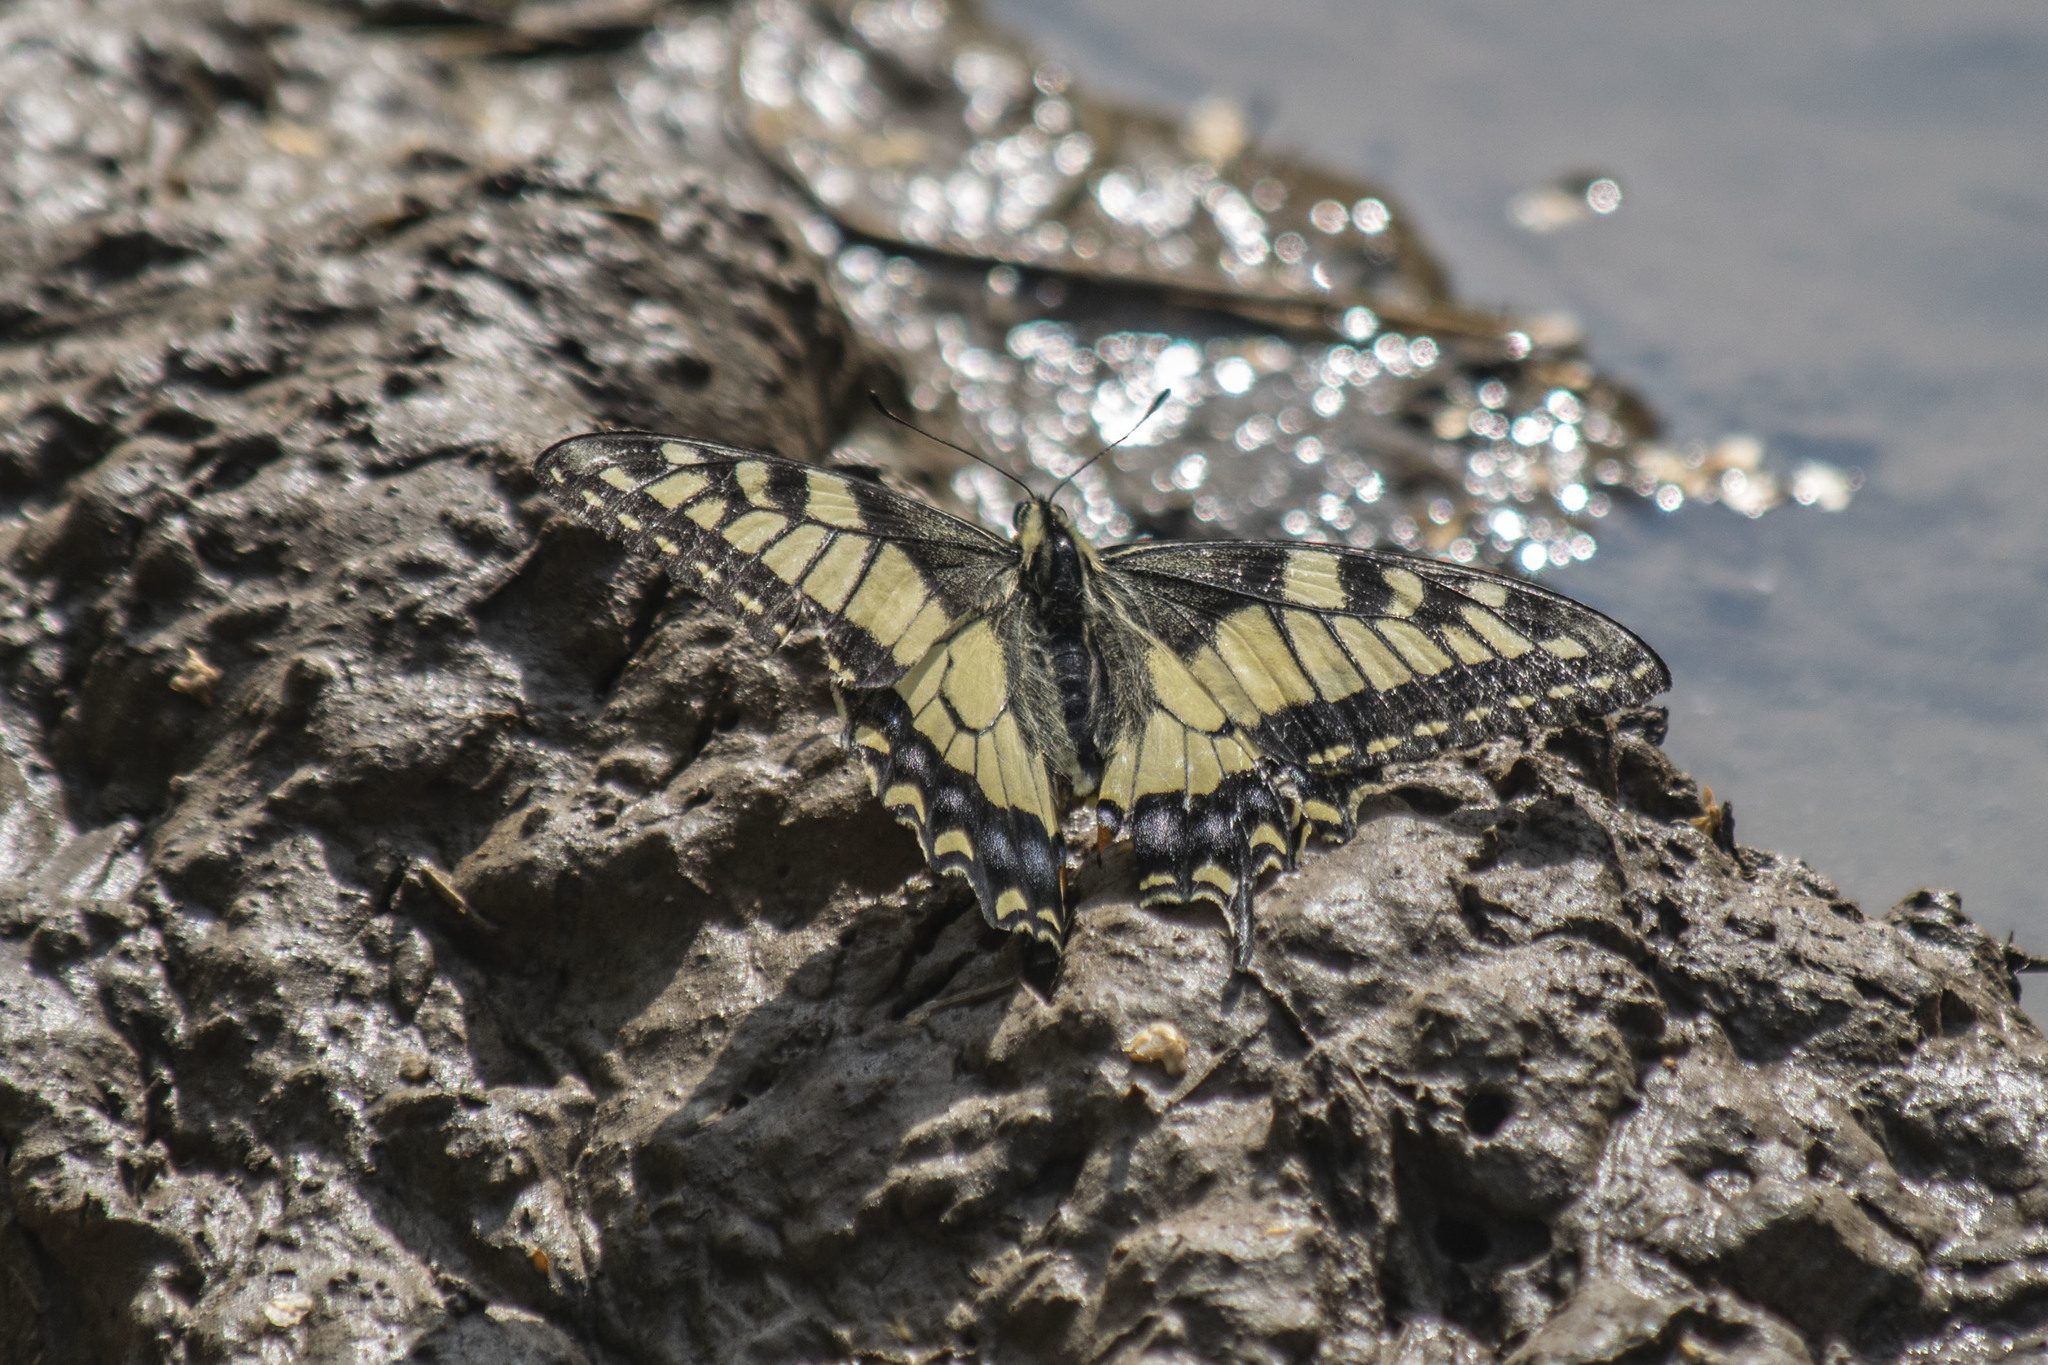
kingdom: Animalia
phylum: Arthropoda
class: Insecta
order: Lepidoptera
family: Papilionidae
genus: Papilio
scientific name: Papilio machaon
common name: Swallowtail
